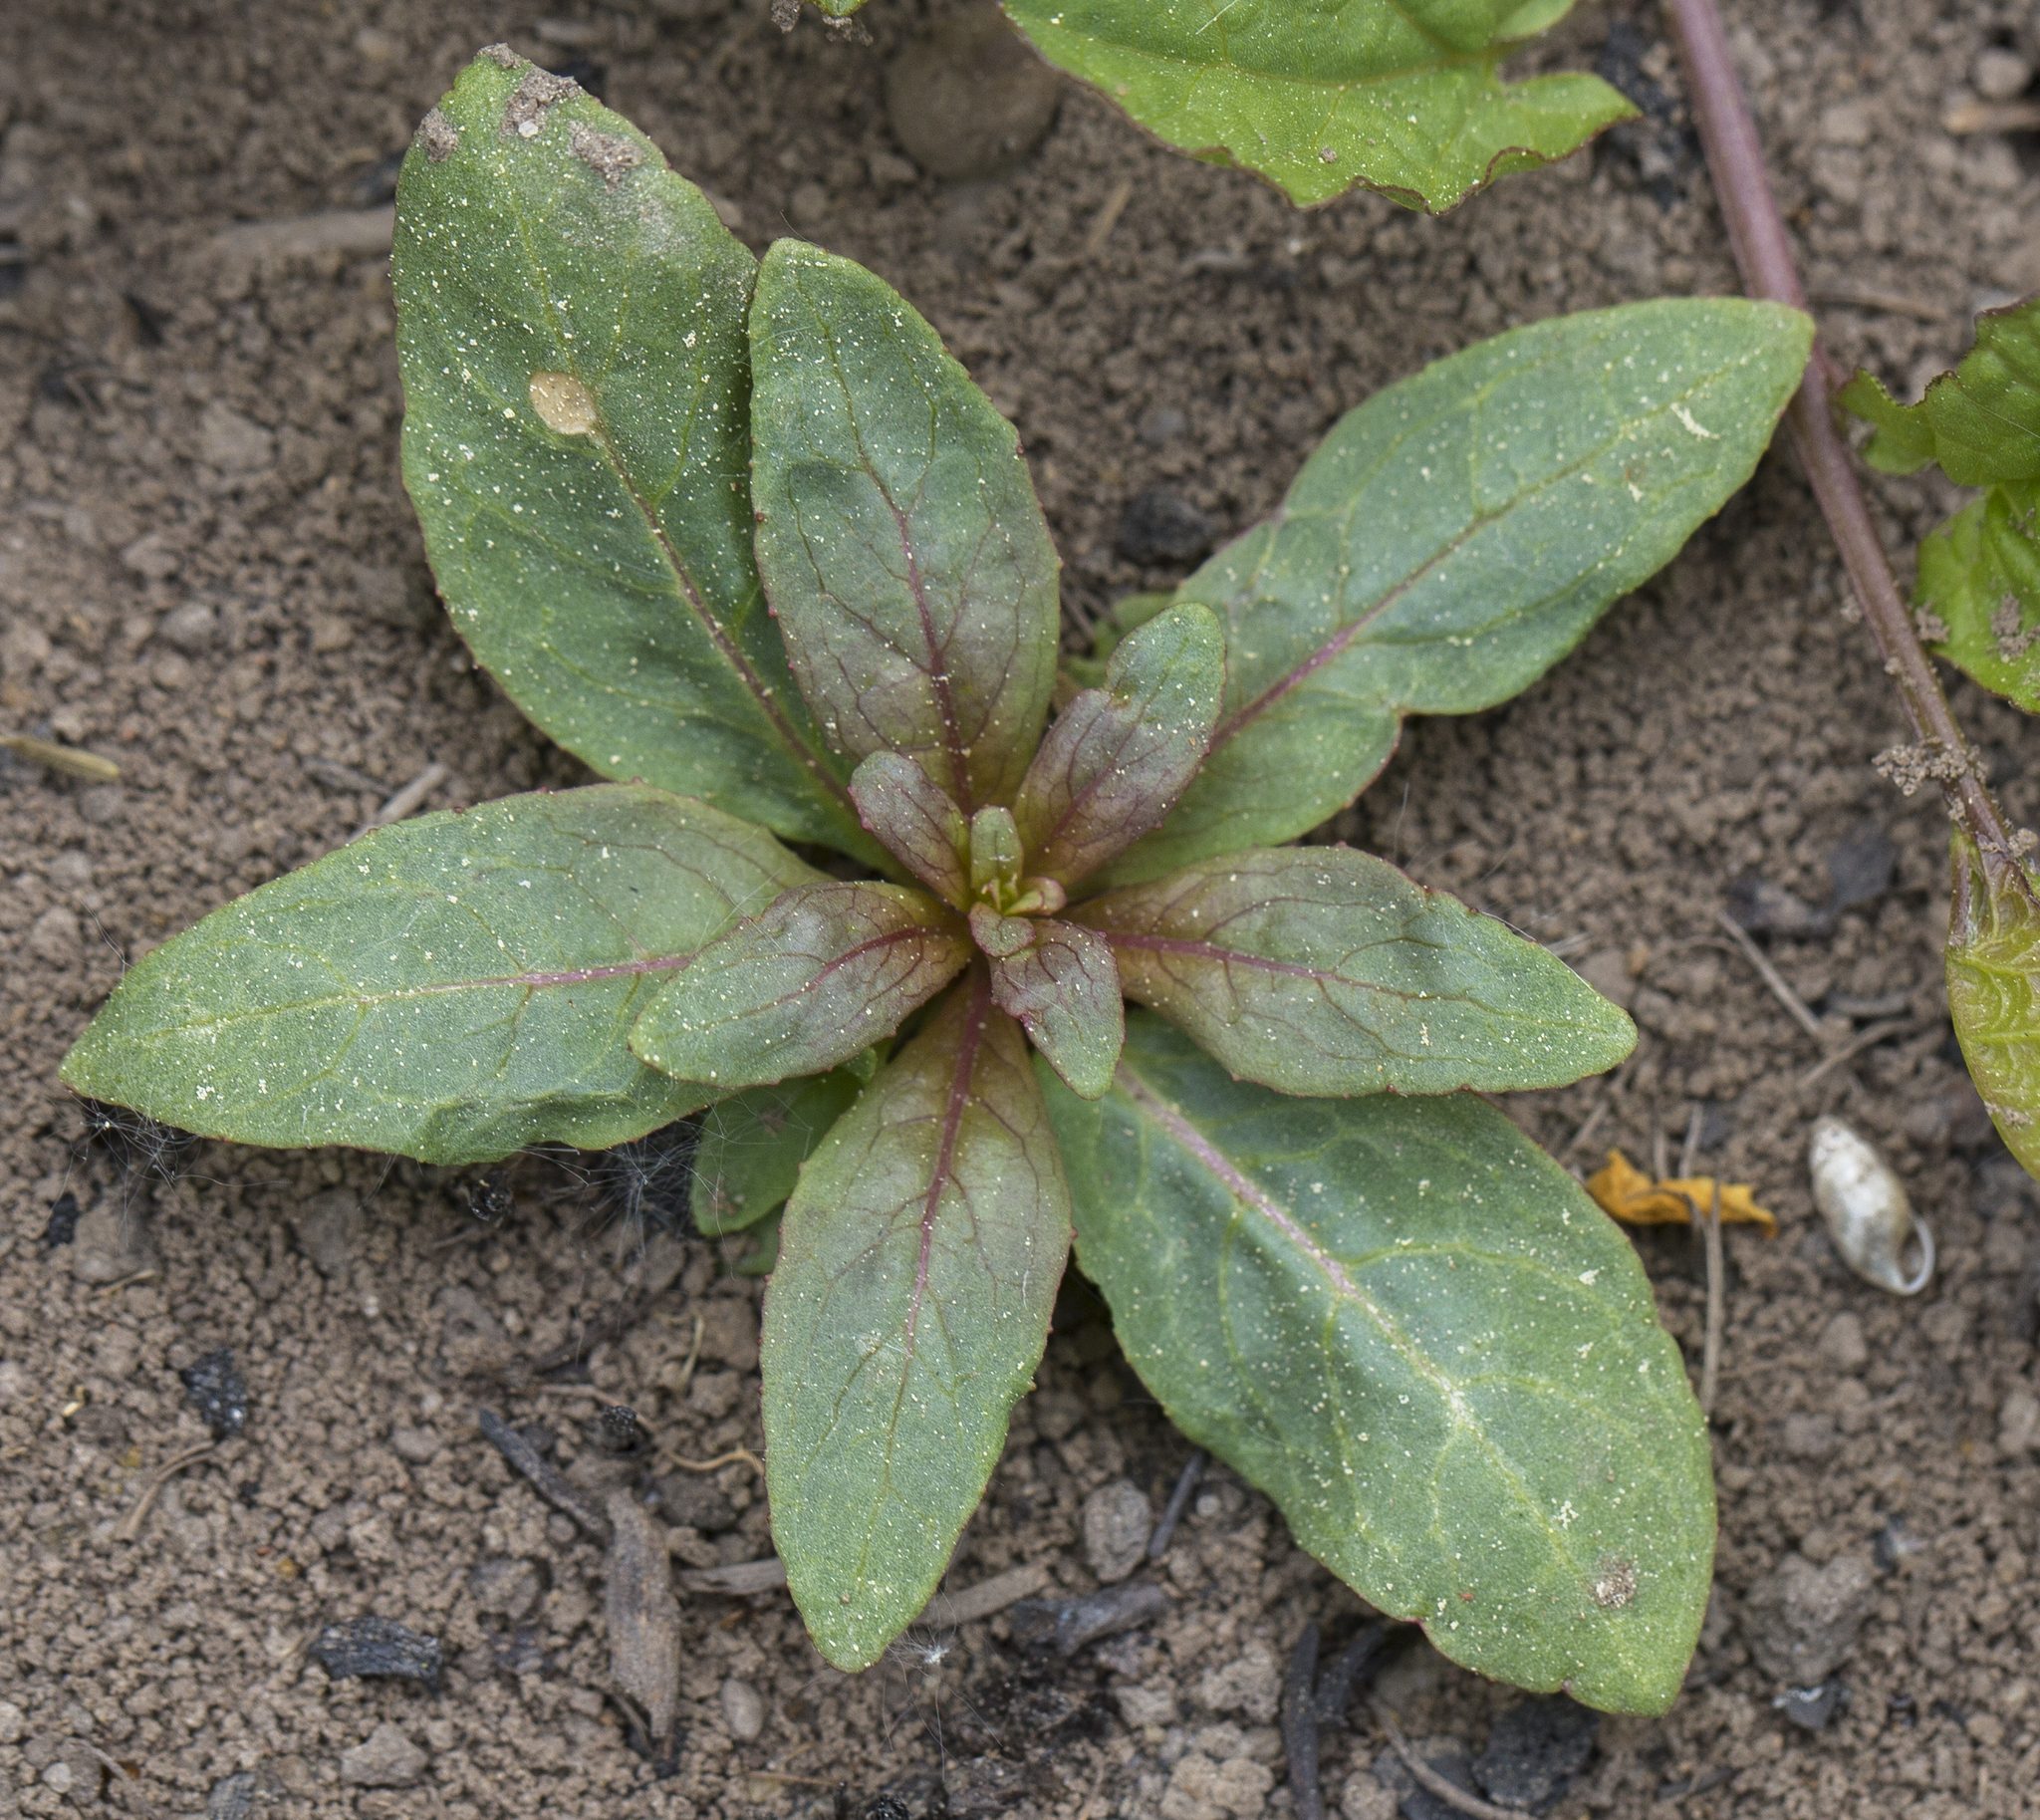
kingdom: Plantae
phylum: Tracheophyta
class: Magnoliopsida
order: Myrtales
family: Onagraceae
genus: Chamaenerion
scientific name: Chamaenerion angustifolium
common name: Fireweed
